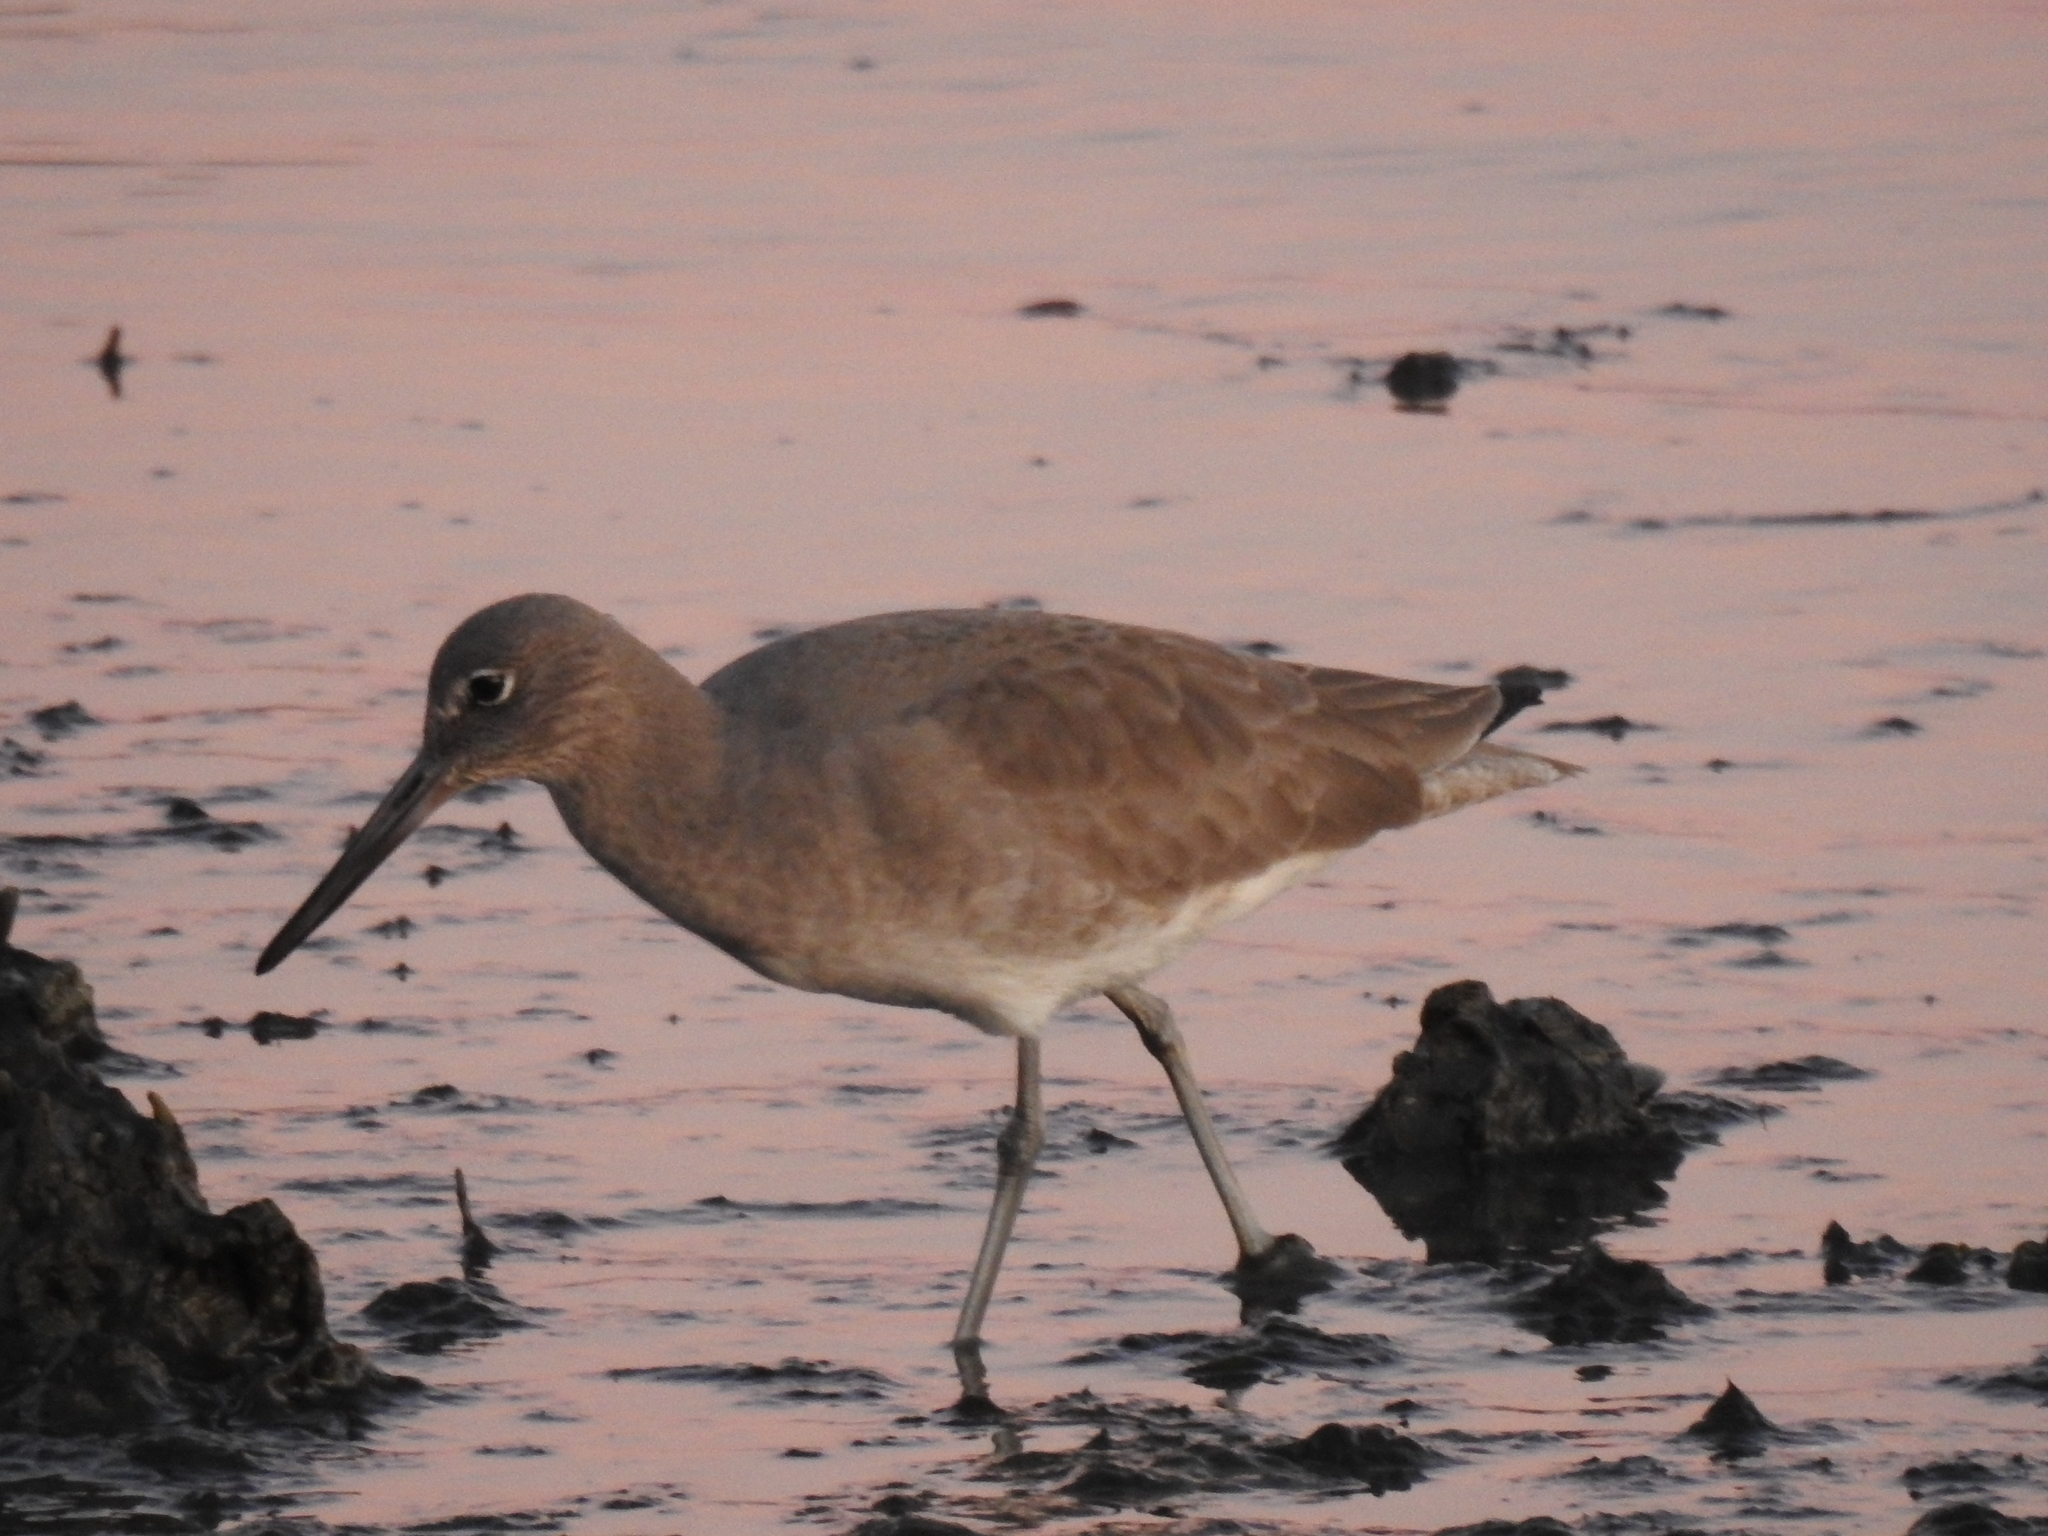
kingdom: Animalia
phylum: Chordata
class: Aves
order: Charadriiformes
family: Scolopacidae
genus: Tringa
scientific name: Tringa semipalmata
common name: Willet
